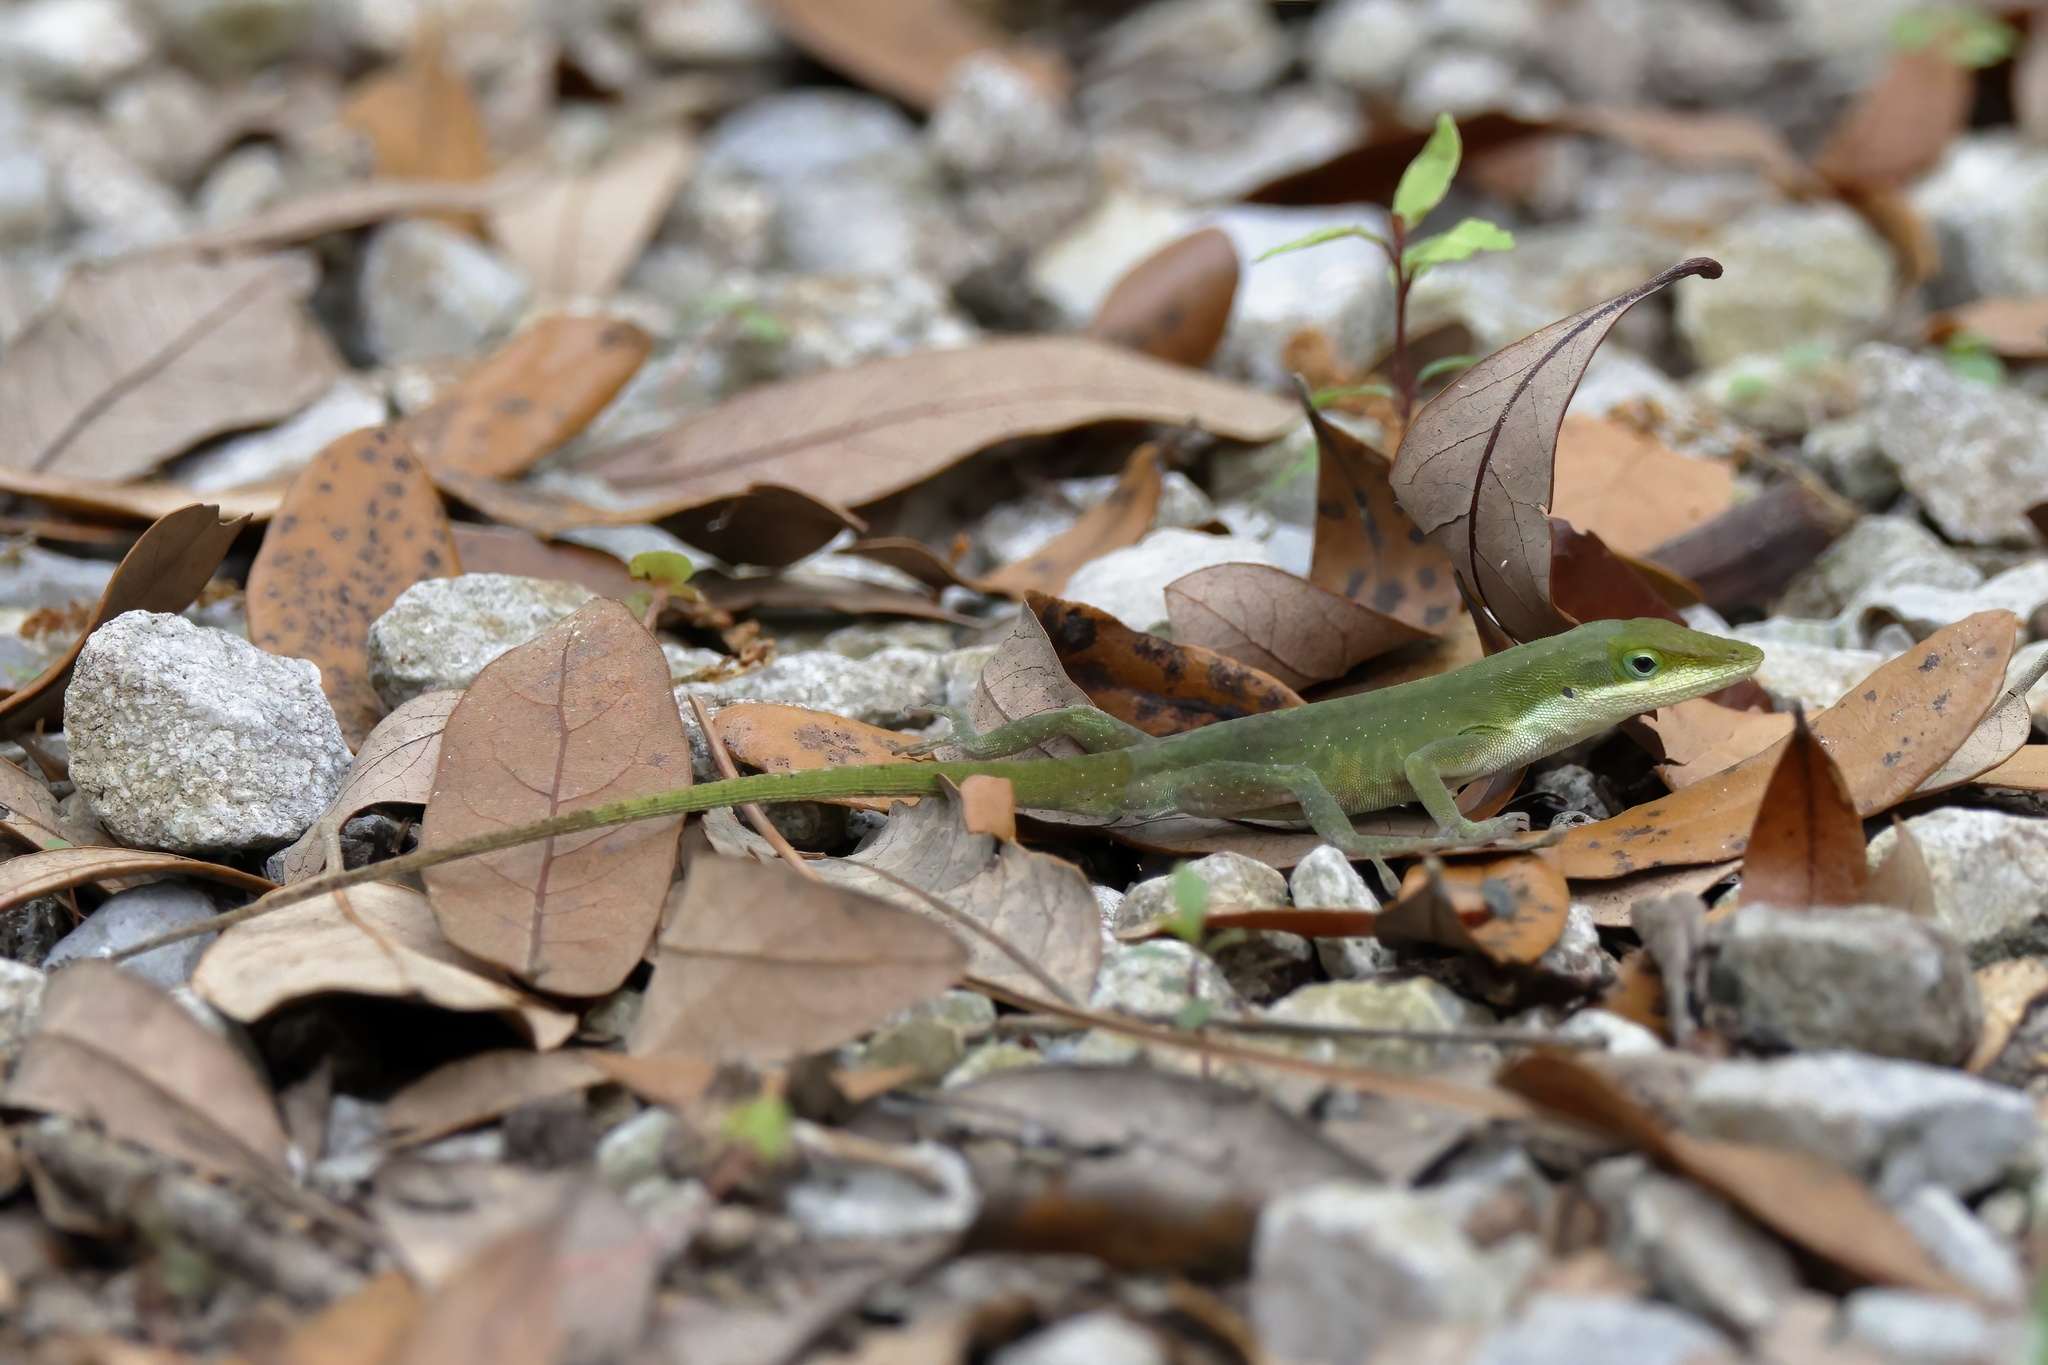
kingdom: Animalia
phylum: Chordata
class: Squamata
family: Dactyloidae
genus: Anolis
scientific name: Anolis carolinensis
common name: Green anole
